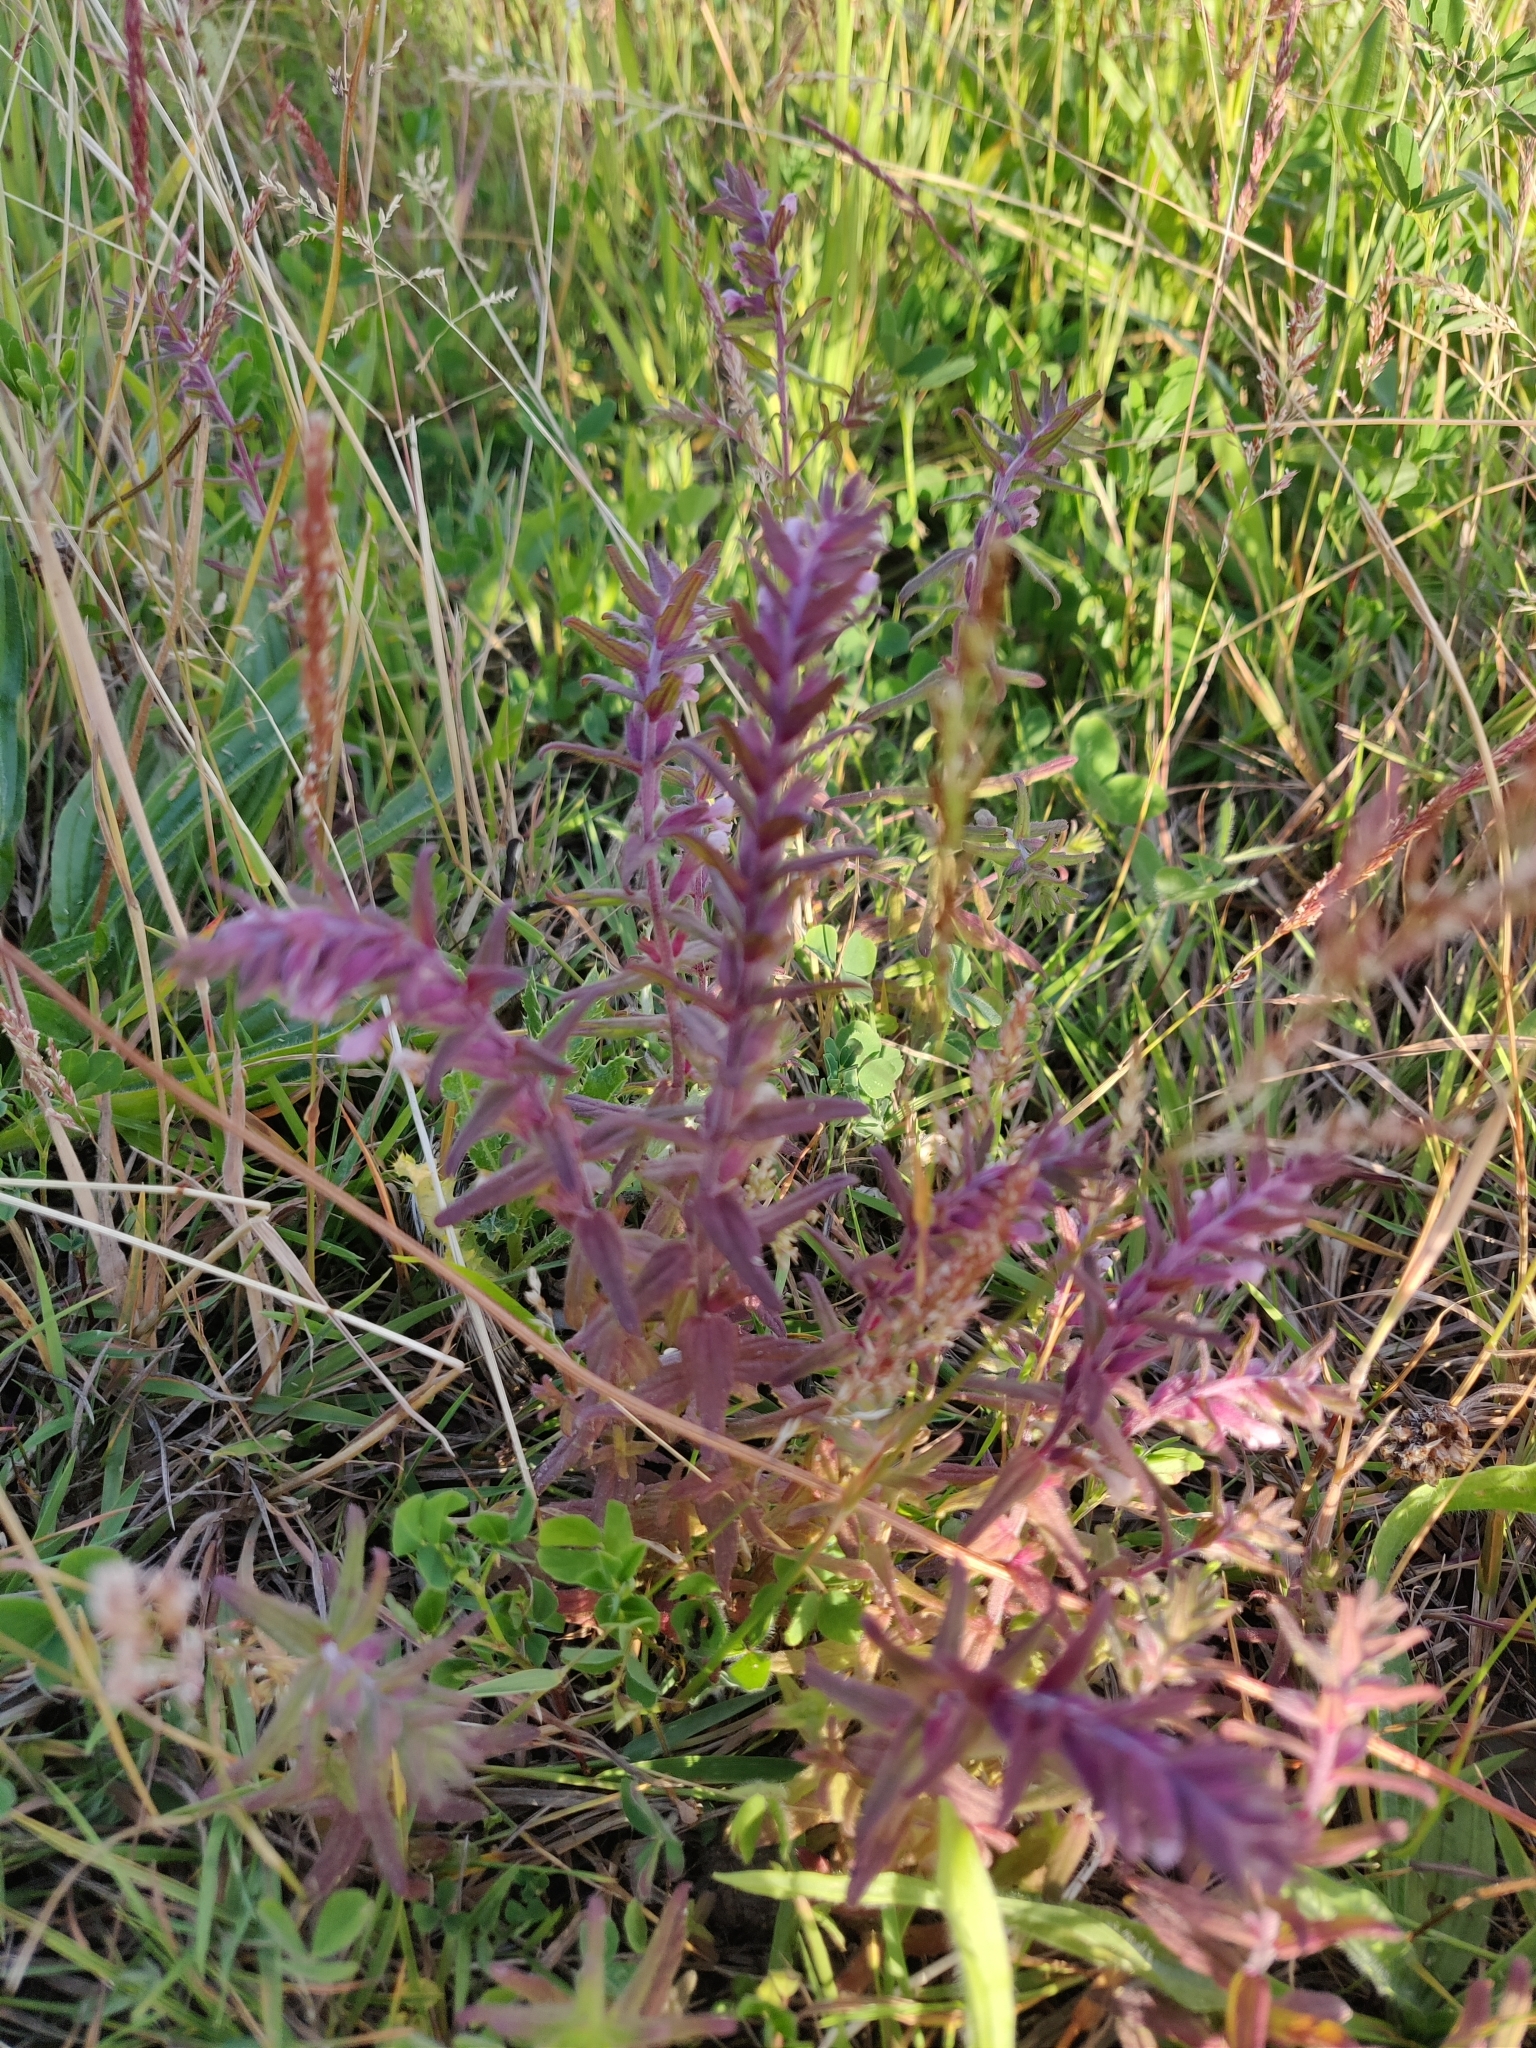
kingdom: Plantae
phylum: Tracheophyta
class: Magnoliopsida
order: Lamiales
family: Orobanchaceae
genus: Odontites
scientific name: Odontites vernus
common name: Red bartsia
